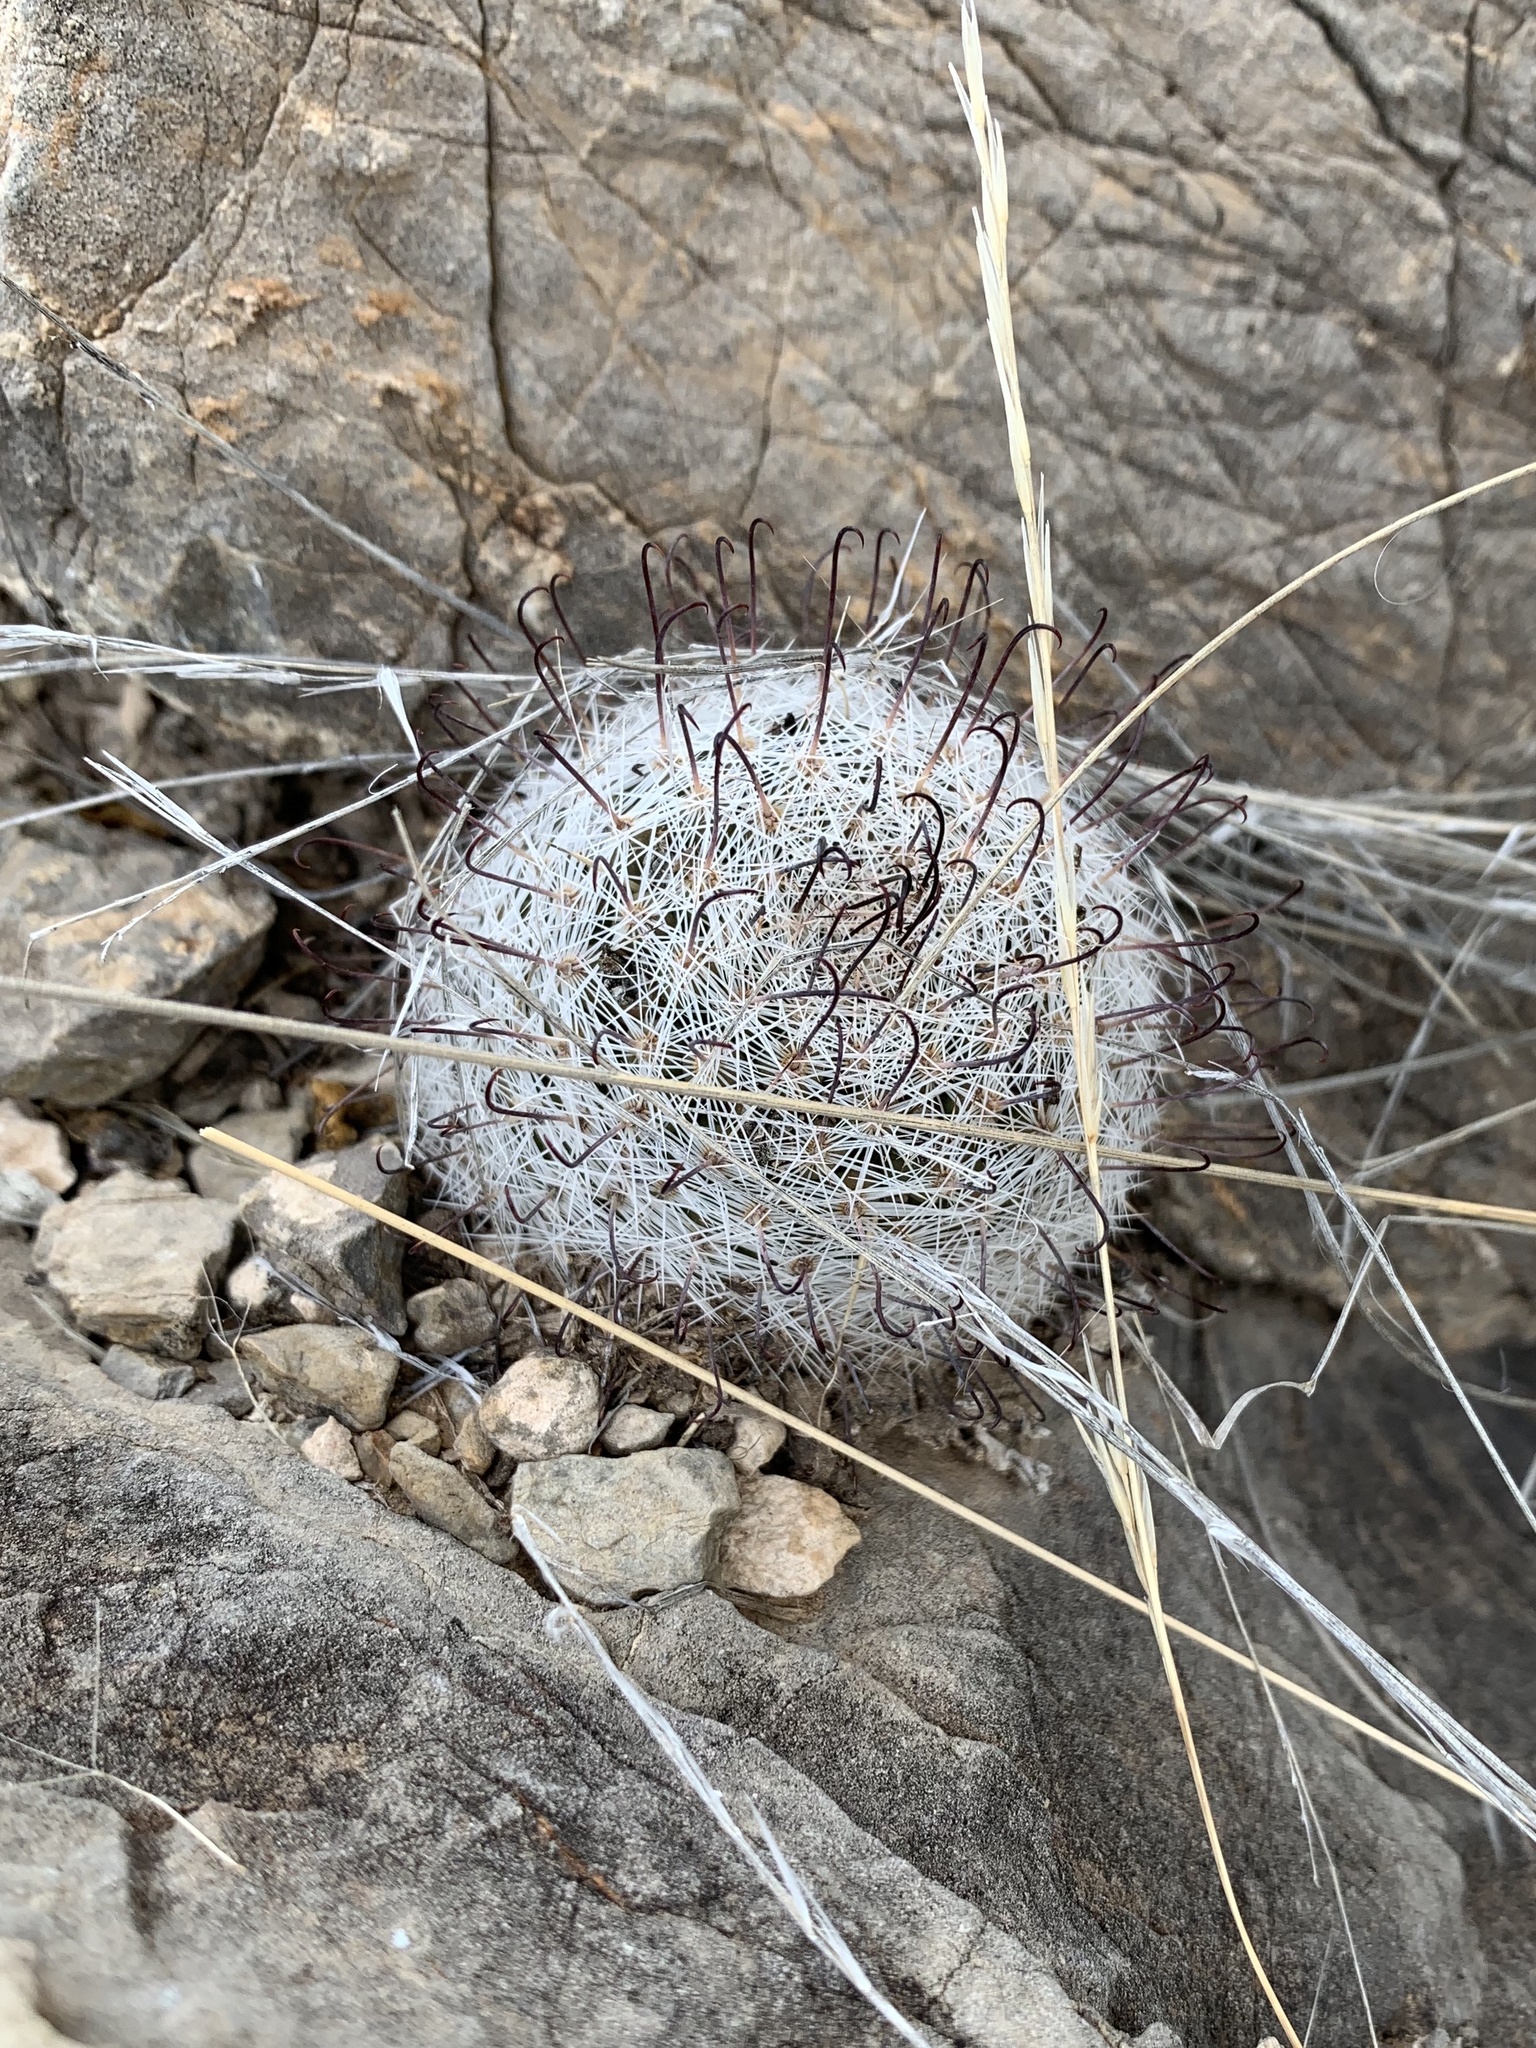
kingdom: Plantae
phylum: Tracheophyta
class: Magnoliopsida
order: Caryophyllales
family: Cactaceae
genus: Cochemiea
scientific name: Cochemiea grahamii
